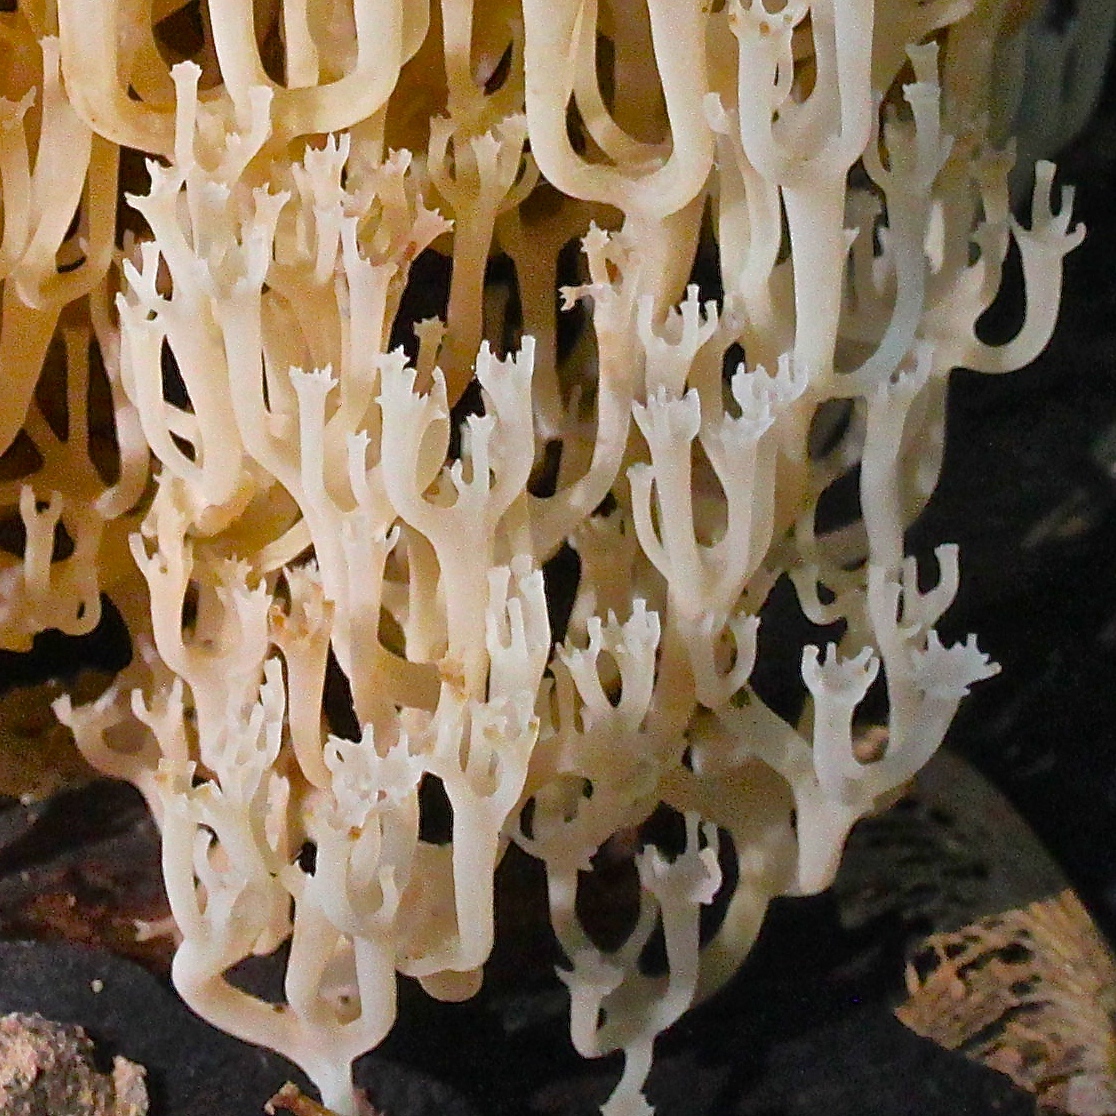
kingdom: Fungi
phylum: Basidiomycota
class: Agaricomycetes
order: Russulales
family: Auriscalpiaceae
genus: Artomyces
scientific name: Artomyces pyxidatus
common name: Crown-tipped coral fungus
